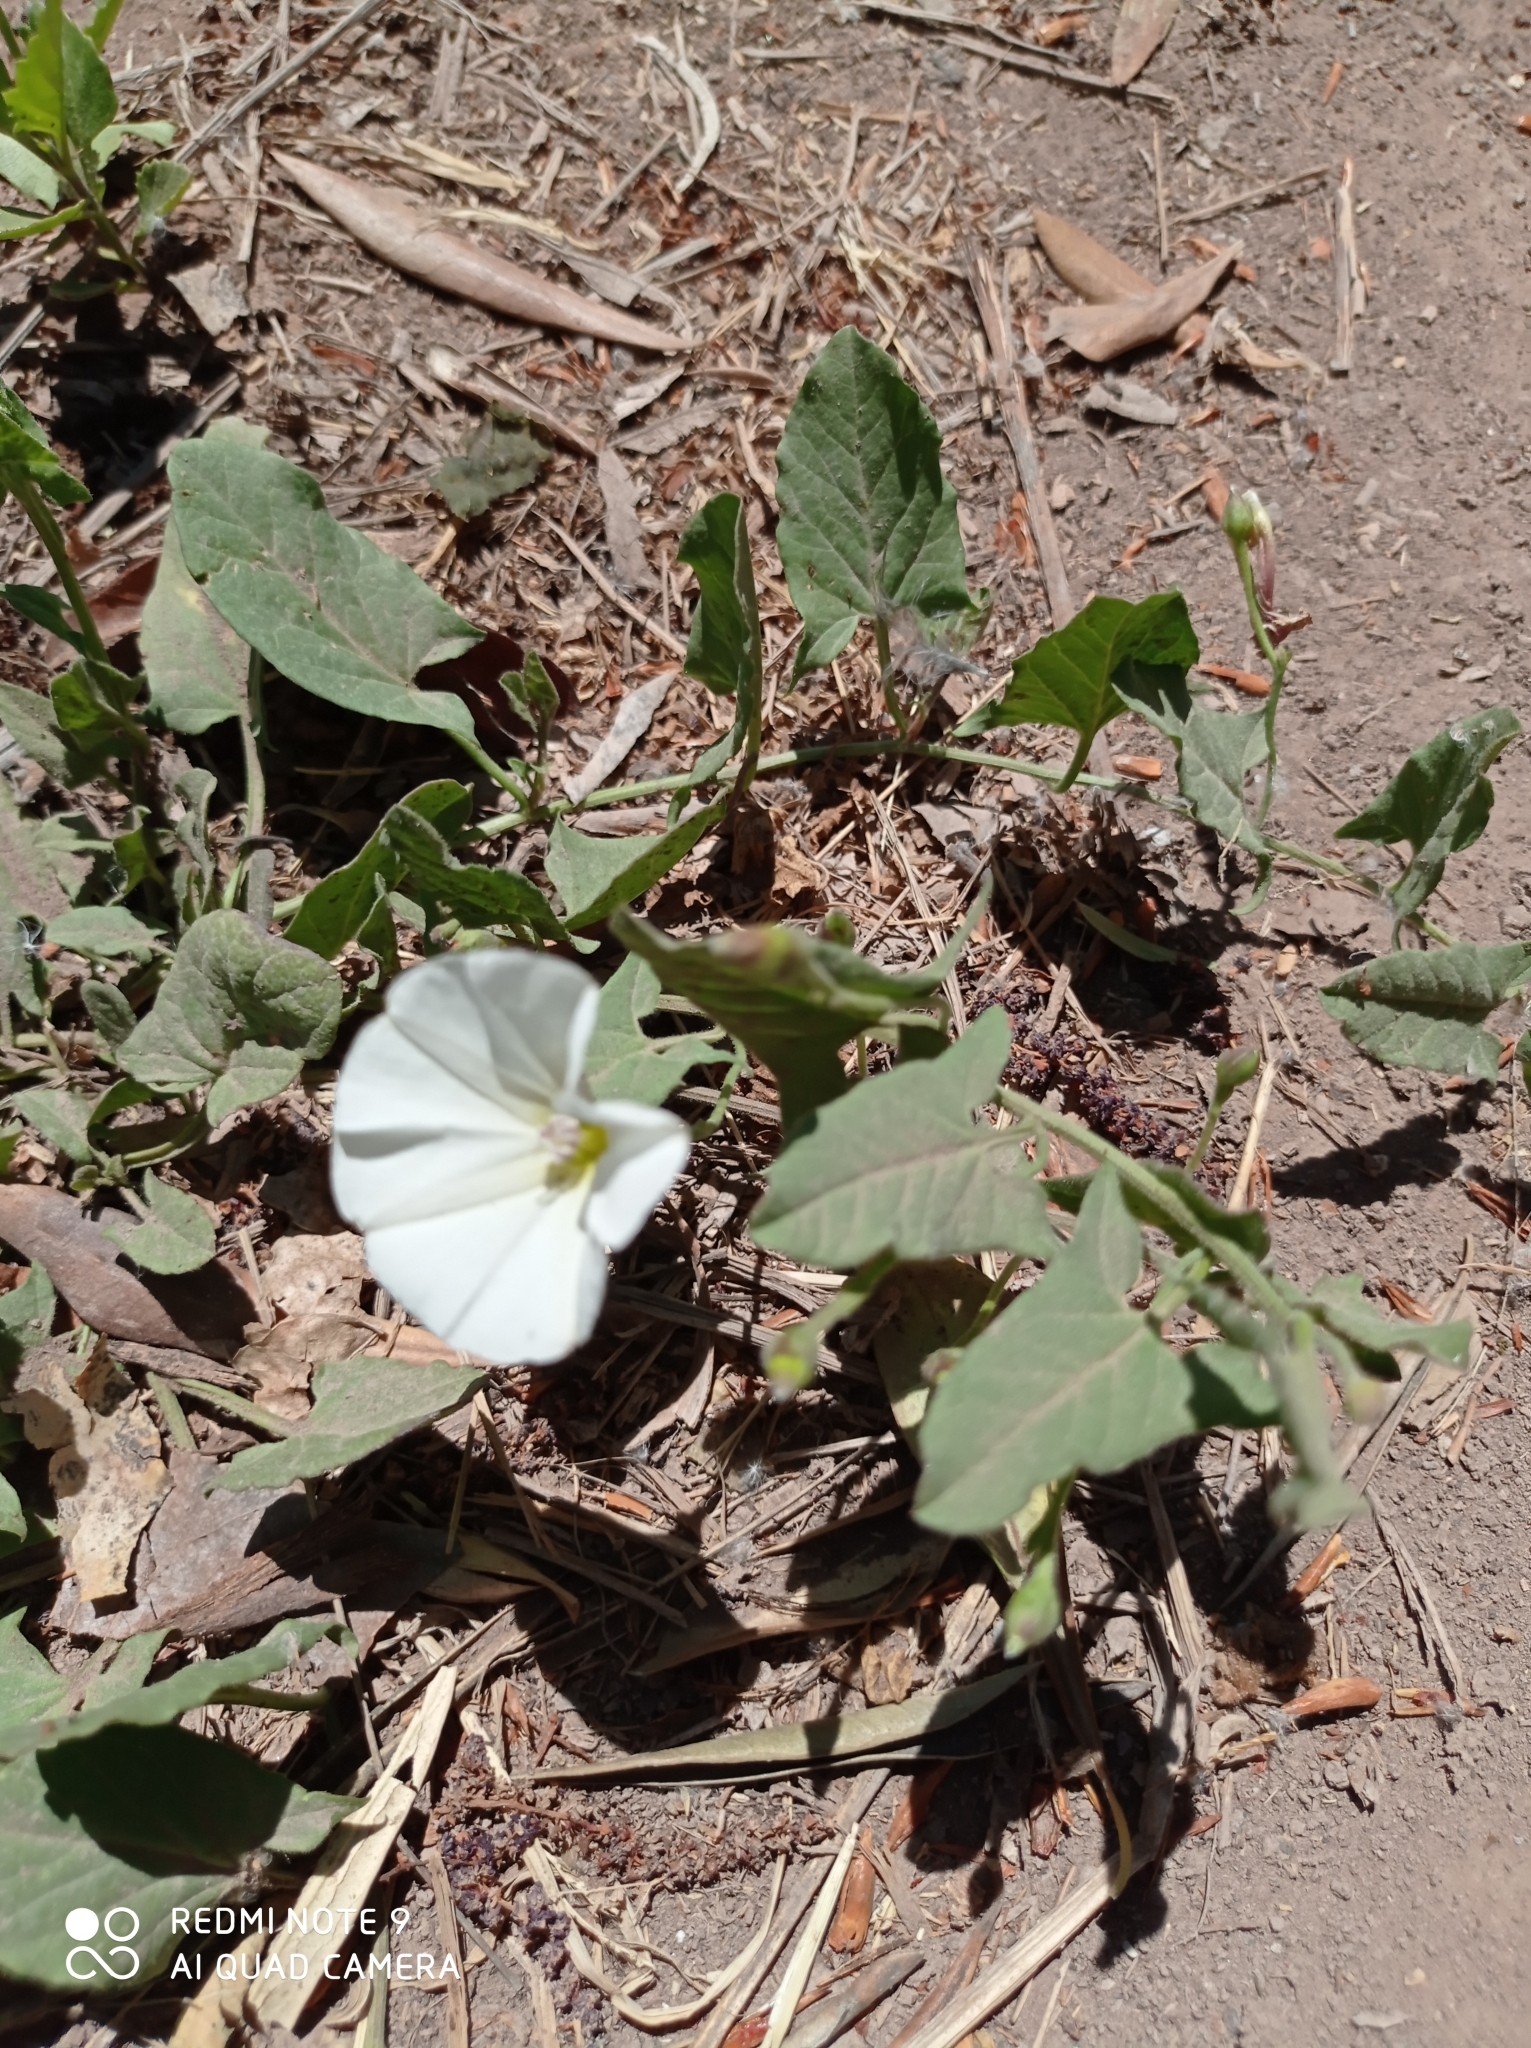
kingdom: Plantae
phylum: Tracheophyta
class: Magnoliopsida
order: Solanales
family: Convolvulaceae
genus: Convolvulus
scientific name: Convolvulus arvensis
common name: Field bindweed
